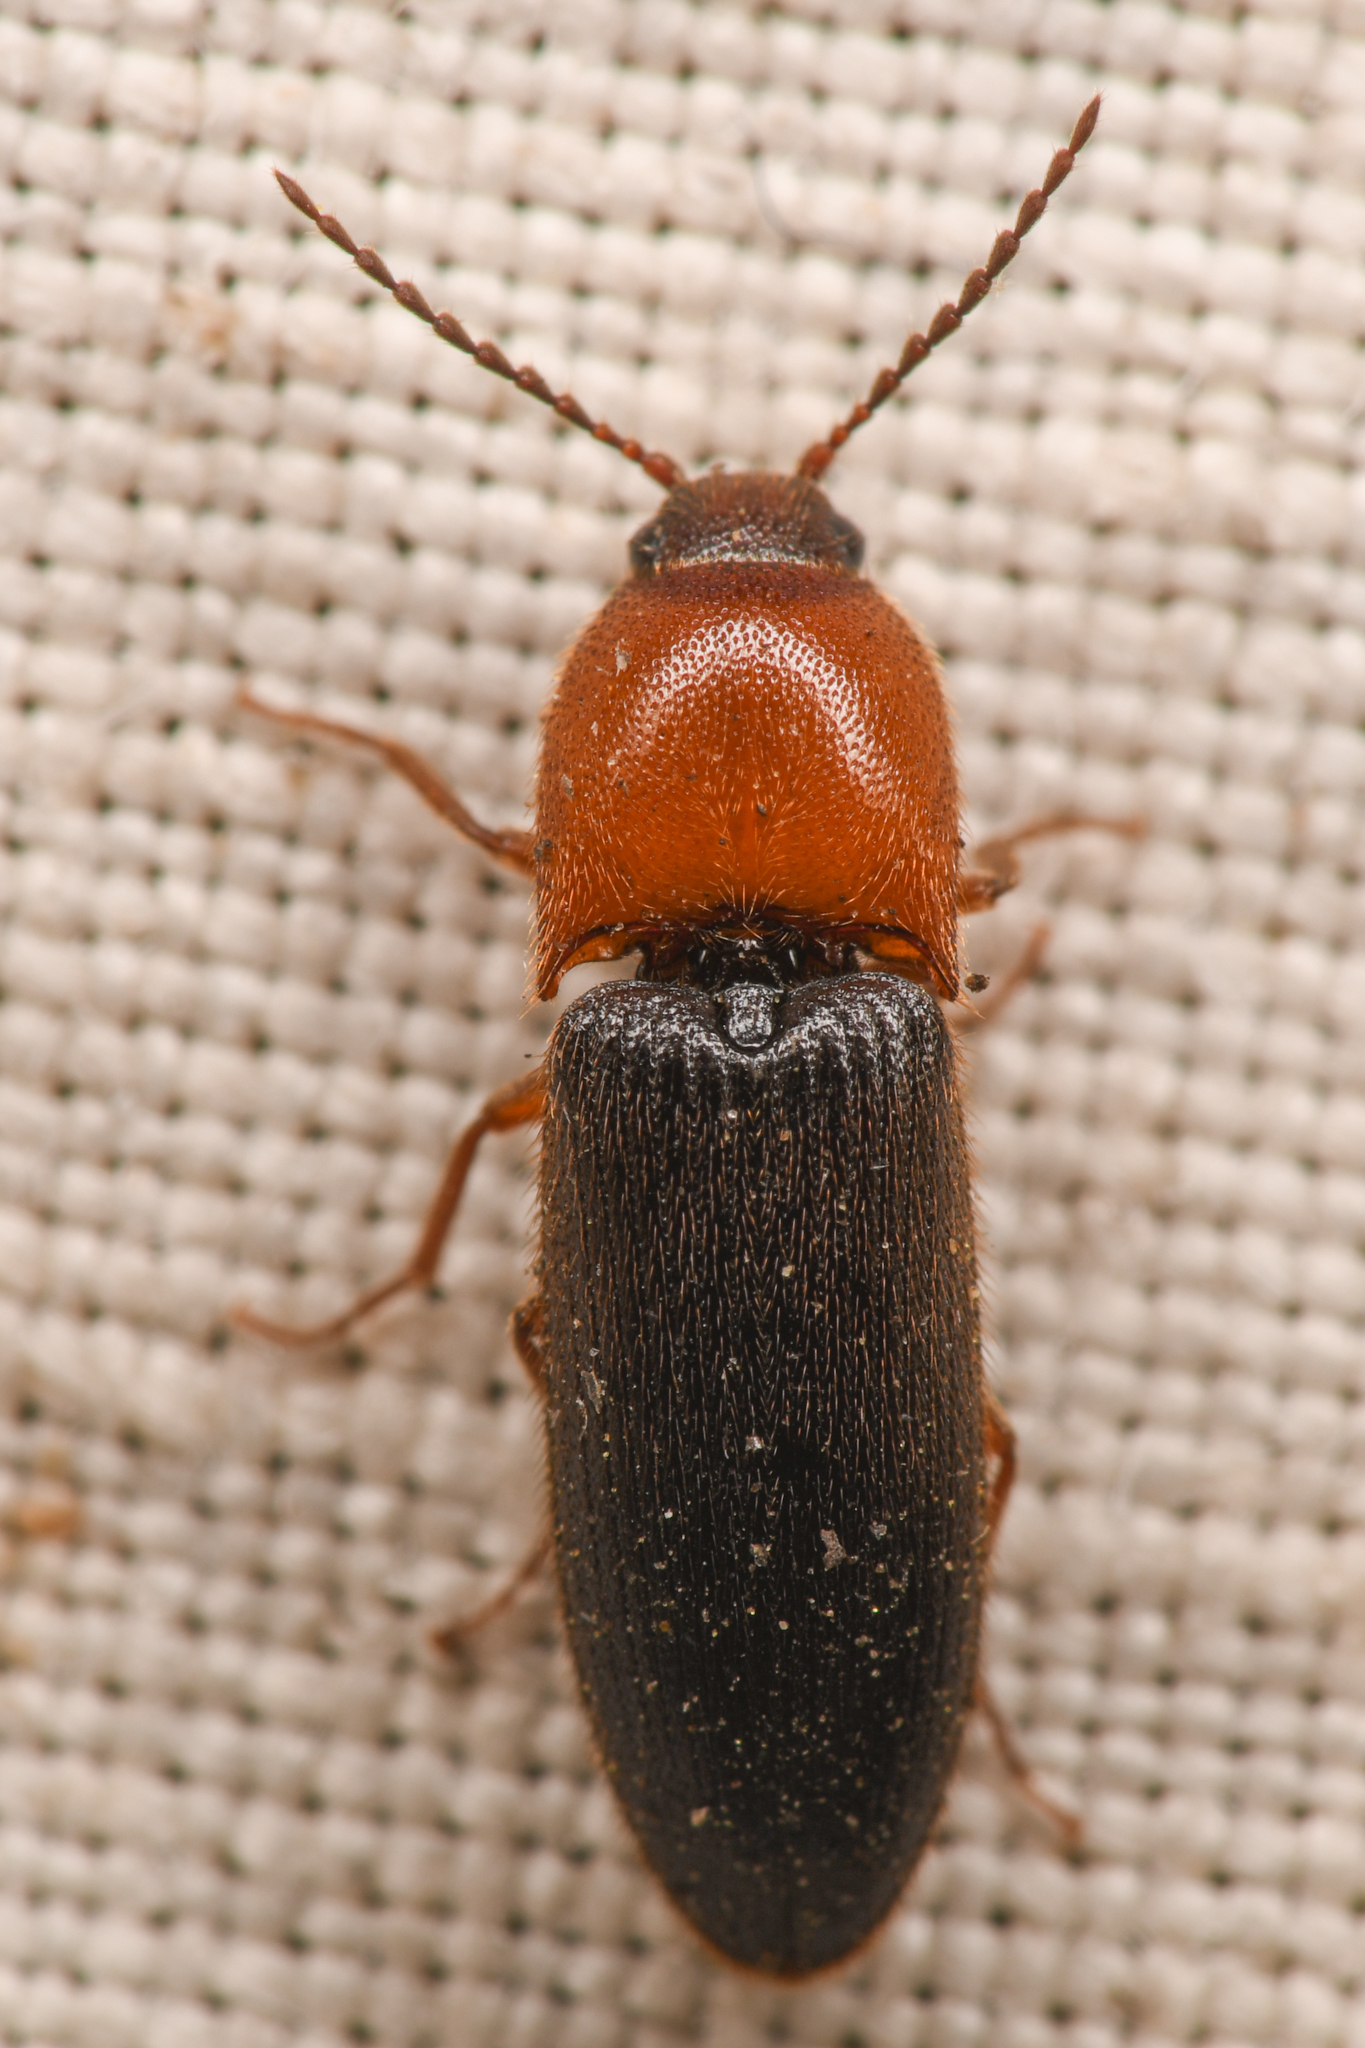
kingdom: Animalia
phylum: Arthropoda
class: Insecta
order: Coleoptera
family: Elateridae
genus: Ampedus
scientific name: Ampedus
